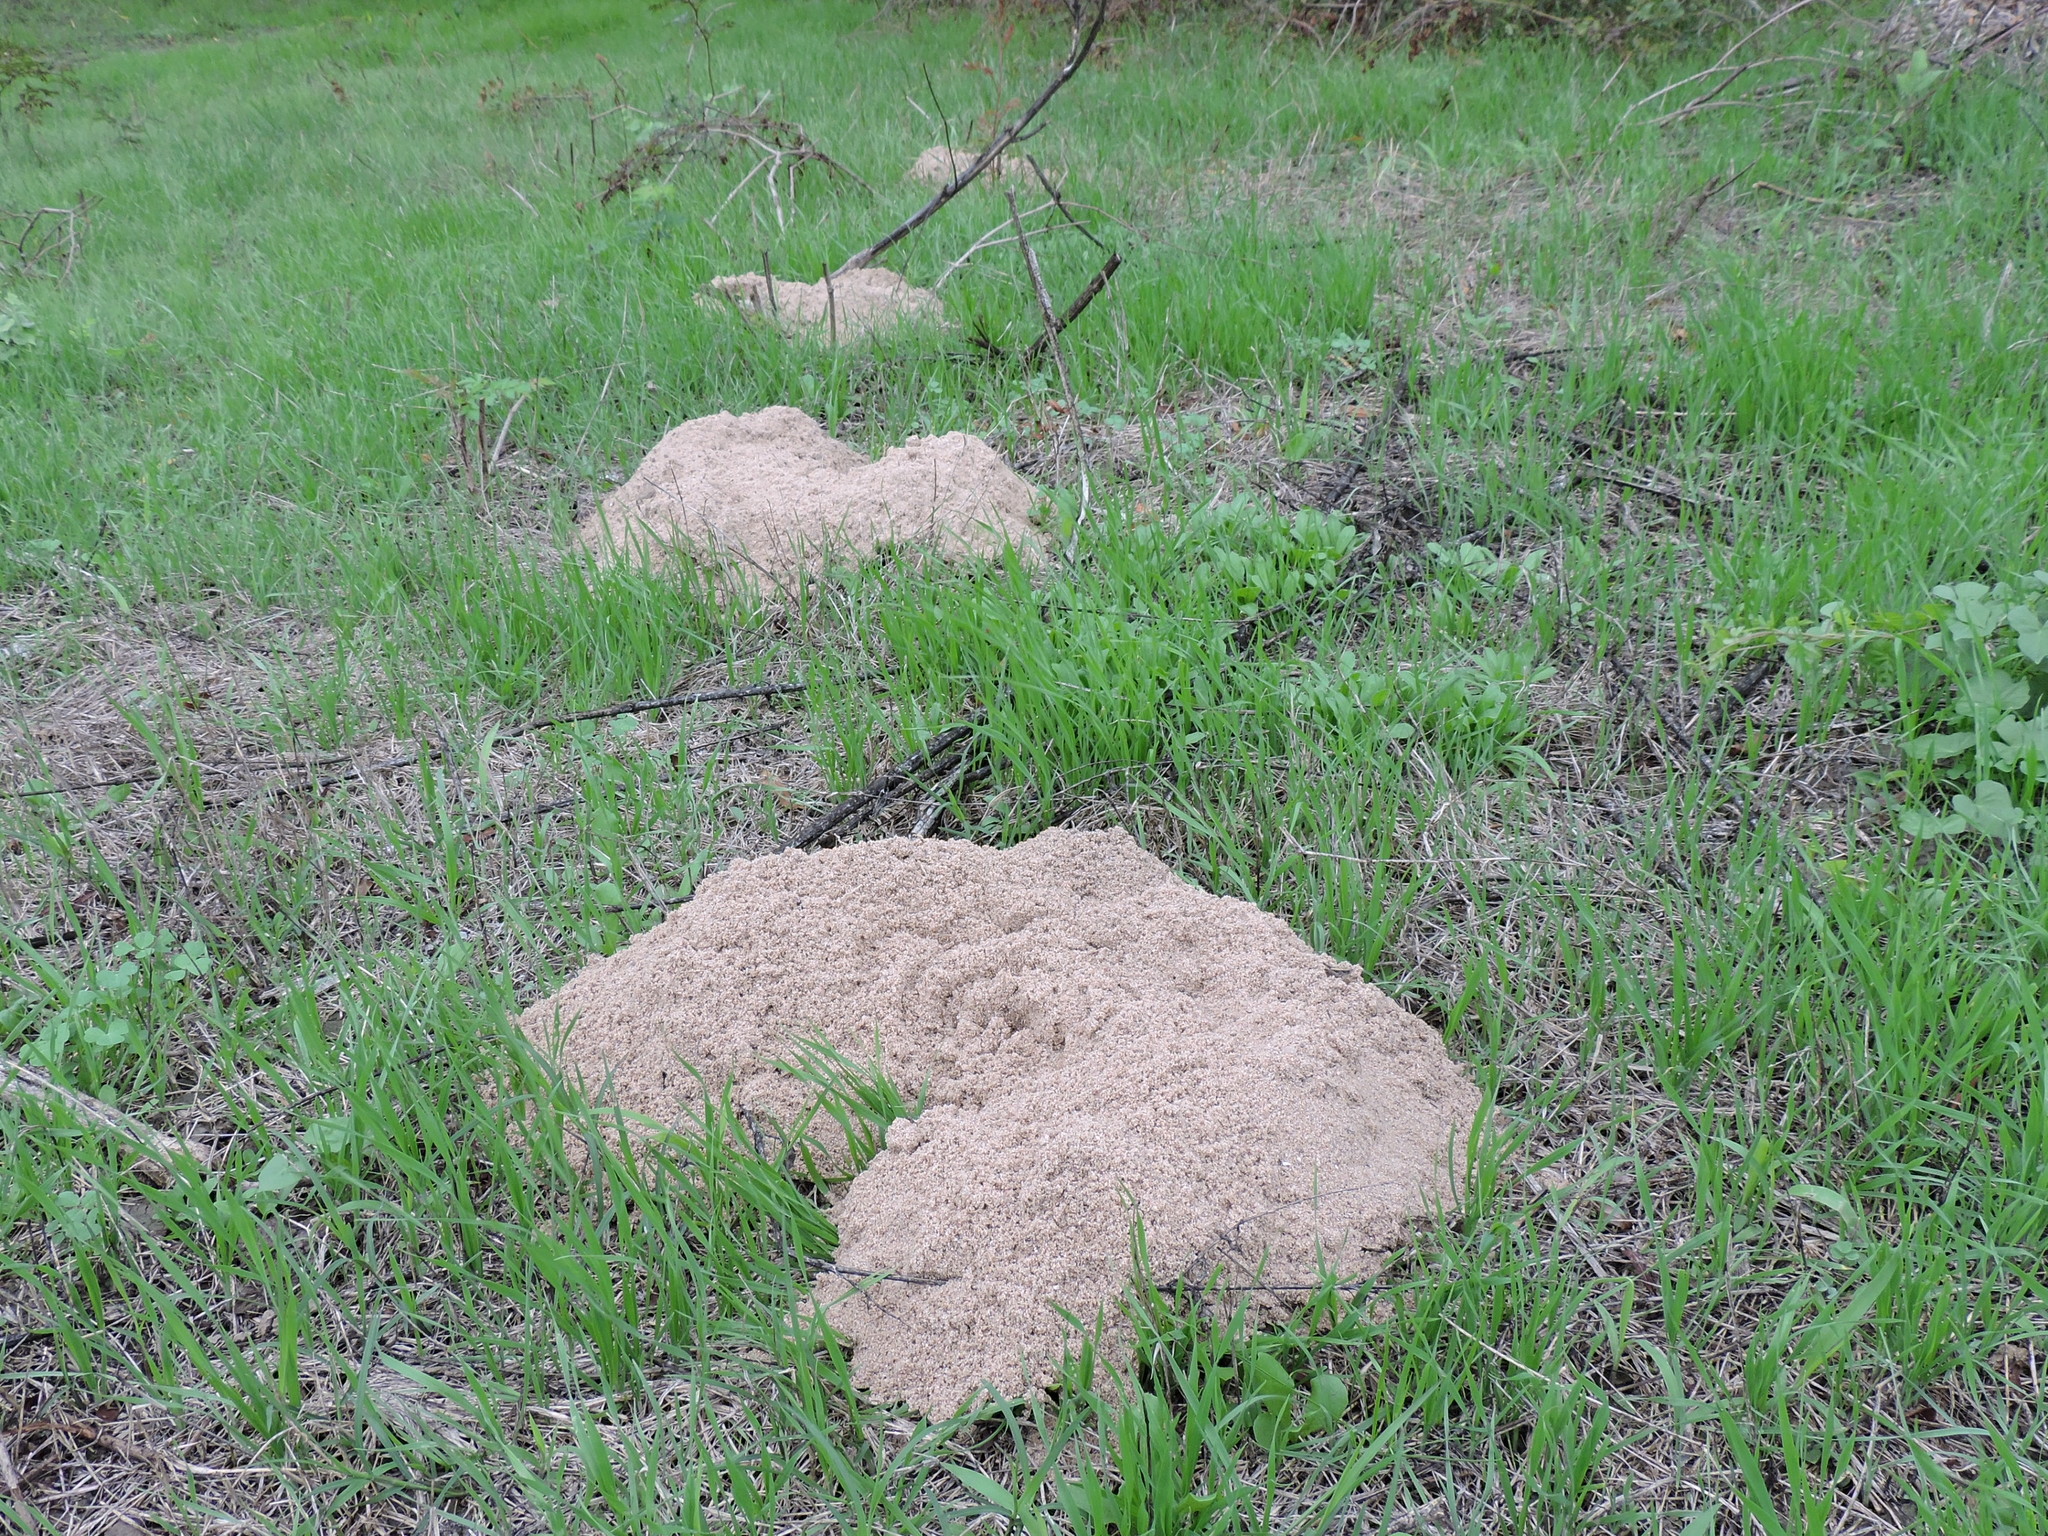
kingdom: Animalia
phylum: Chordata
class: Mammalia
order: Rodentia
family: Geomyidae
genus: Geomys
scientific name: Geomys texensis
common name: Llano pocket gopher
